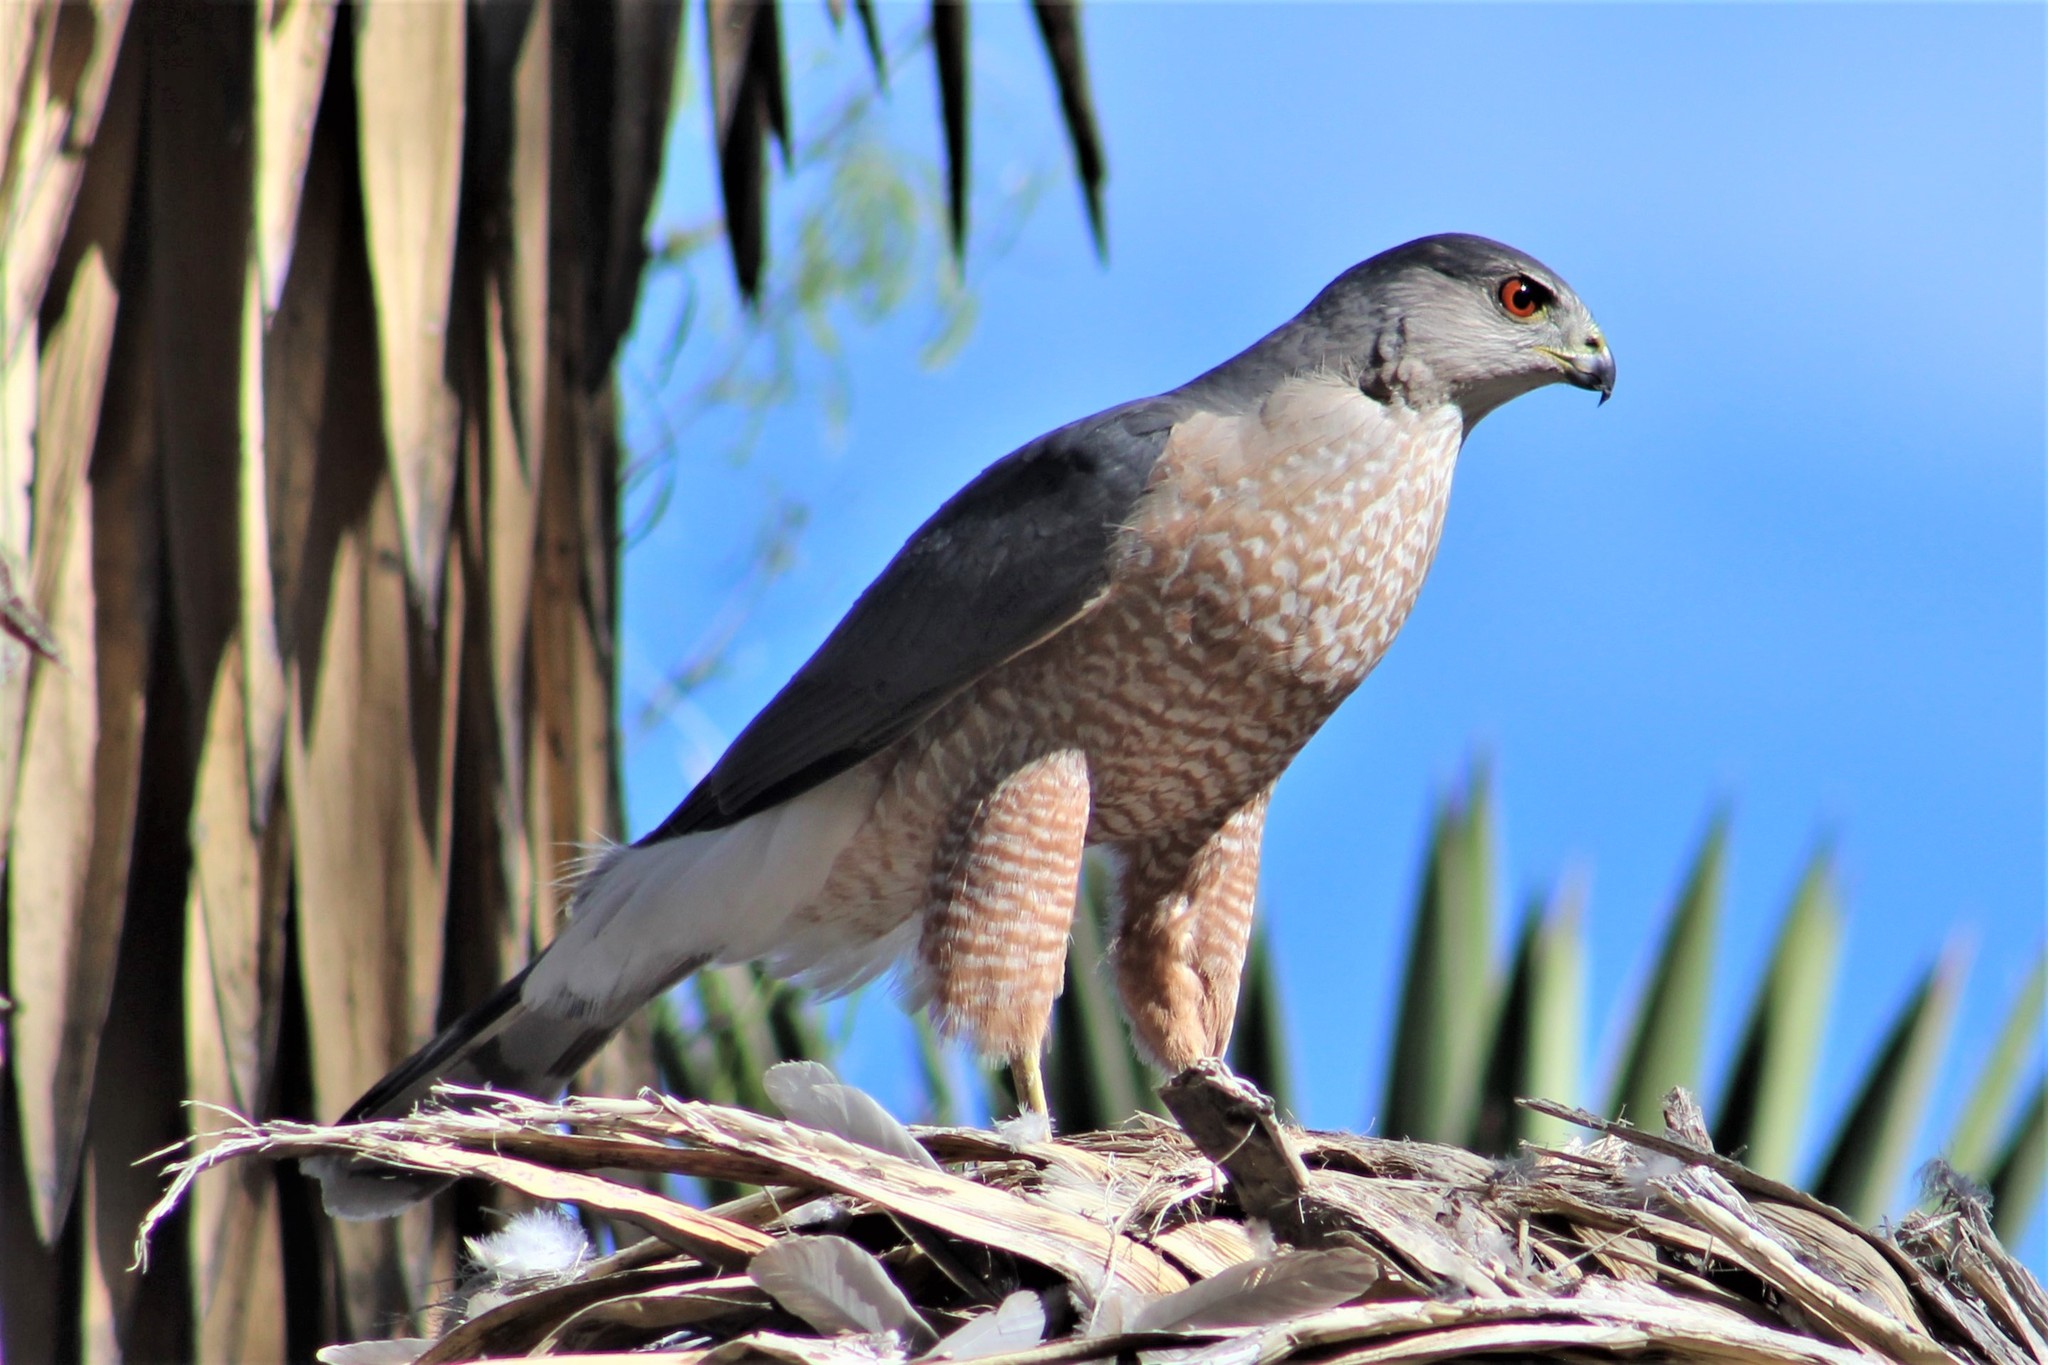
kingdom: Animalia
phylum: Chordata
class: Aves
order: Accipitriformes
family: Accipitridae
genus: Accipiter
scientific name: Accipiter cooperii
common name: Cooper's hawk
